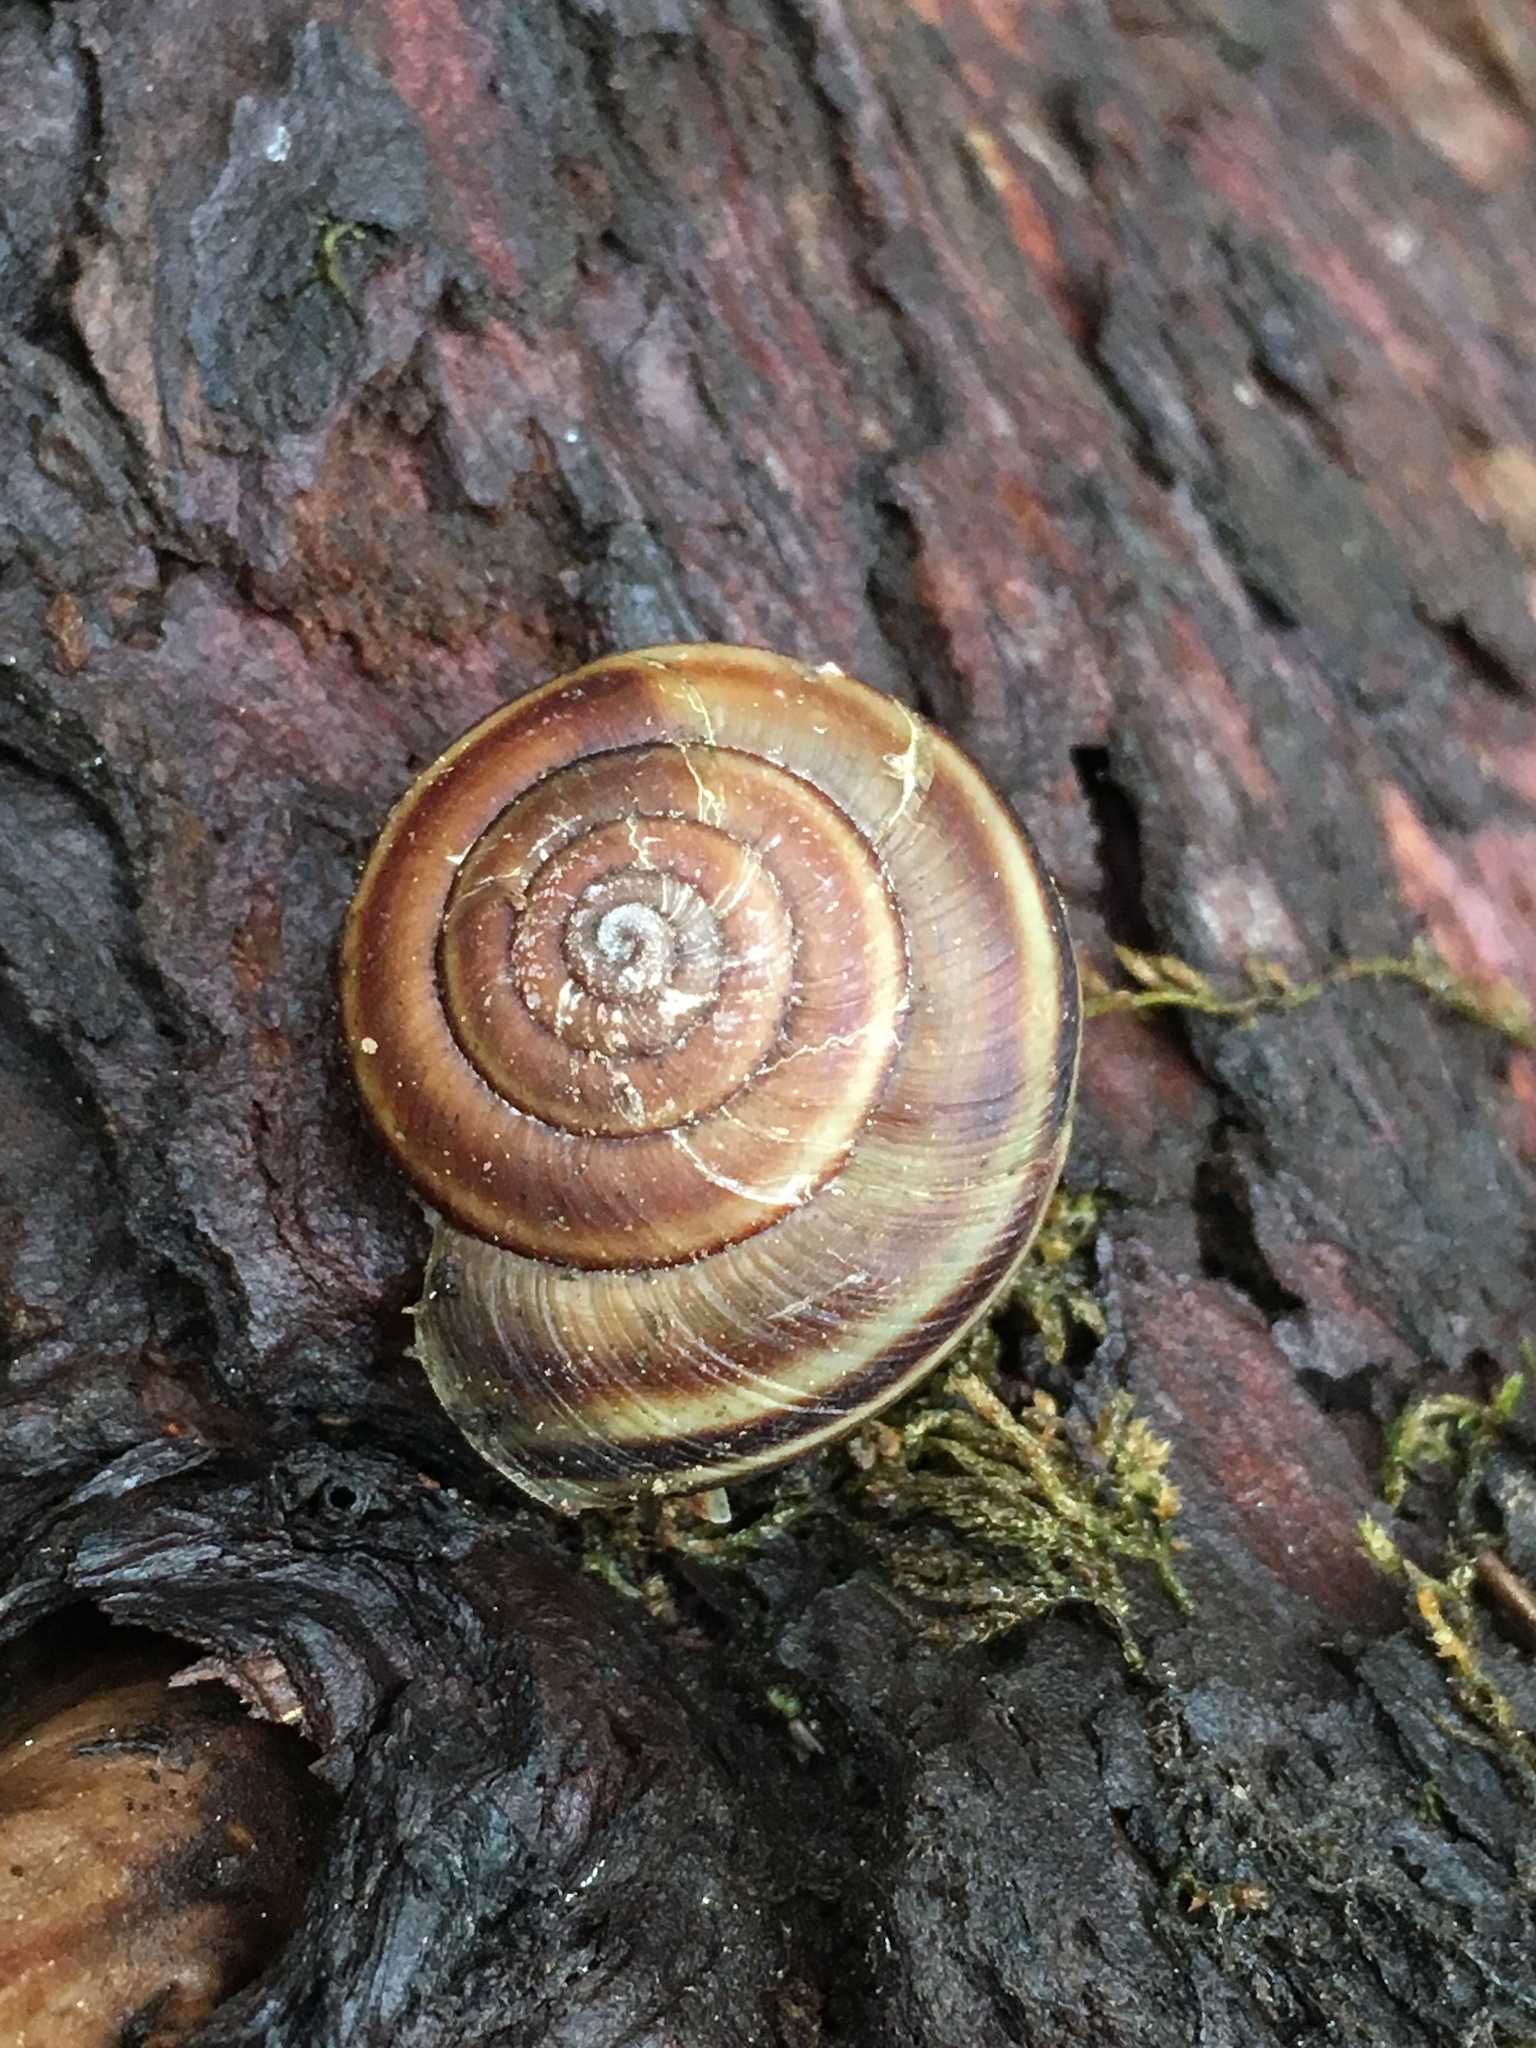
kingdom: Animalia
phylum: Mollusca
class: Gastropoda
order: Stylommatophora
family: Xanthonychidae
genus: Monadenia
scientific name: Monadenia mormonum
